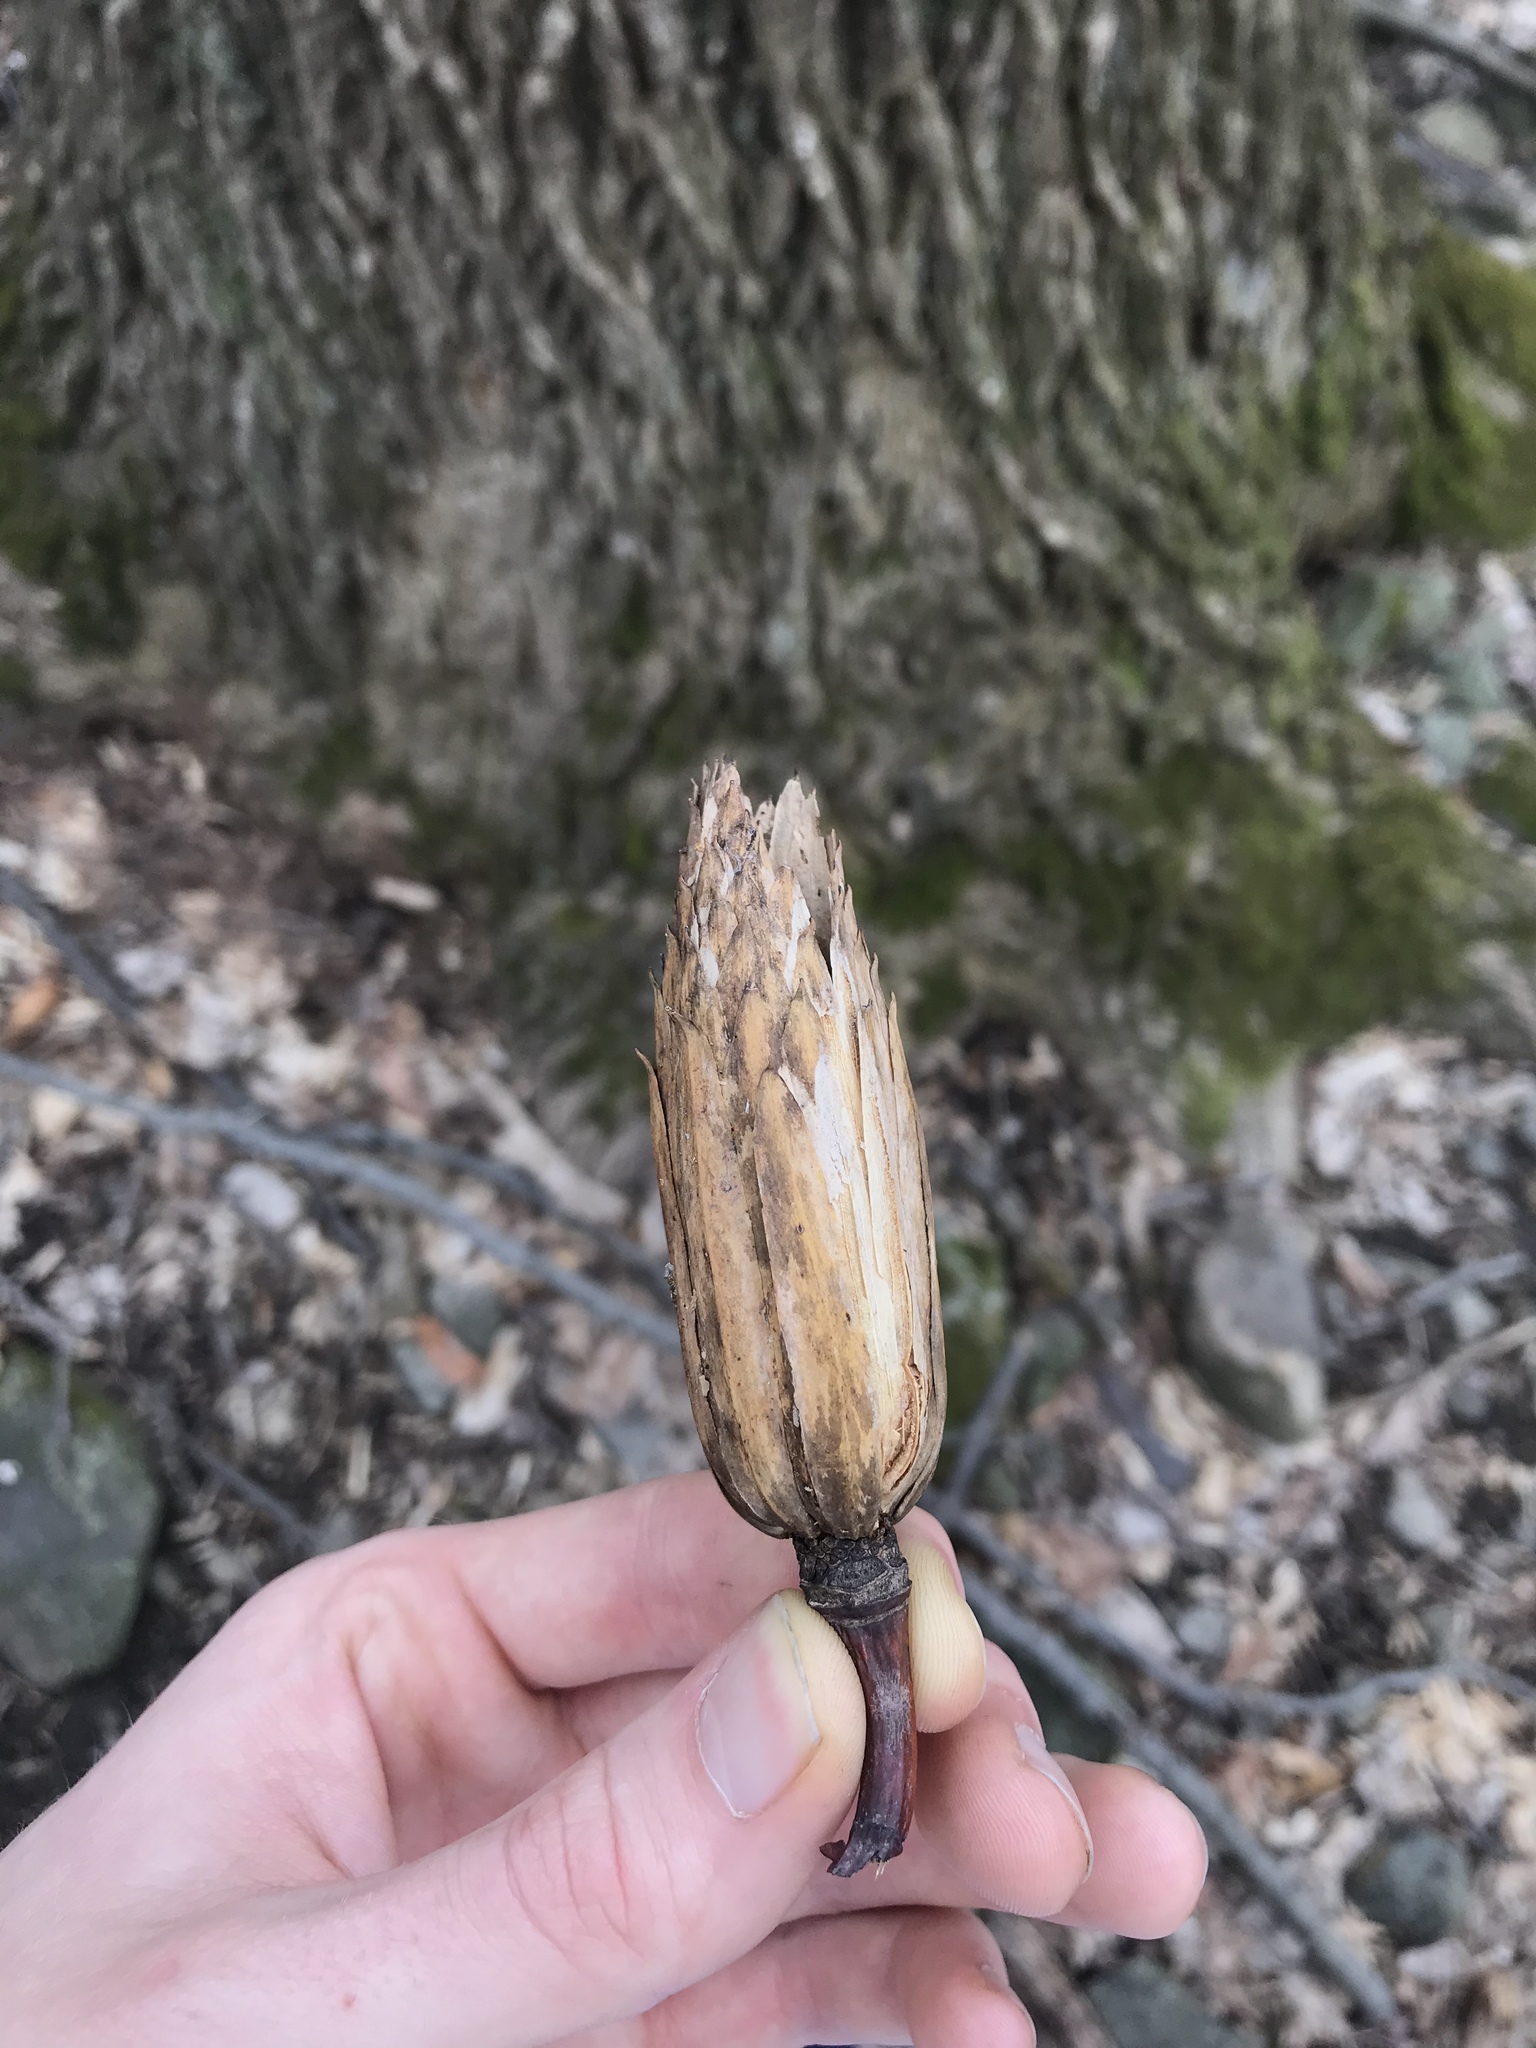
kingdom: Plantae
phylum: Tracheophyta
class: Magnoliopsida
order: Magnoliales
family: Magnoliaceae
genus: Liriodendron
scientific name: Liriodendron tulipifera
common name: Tulip tree
